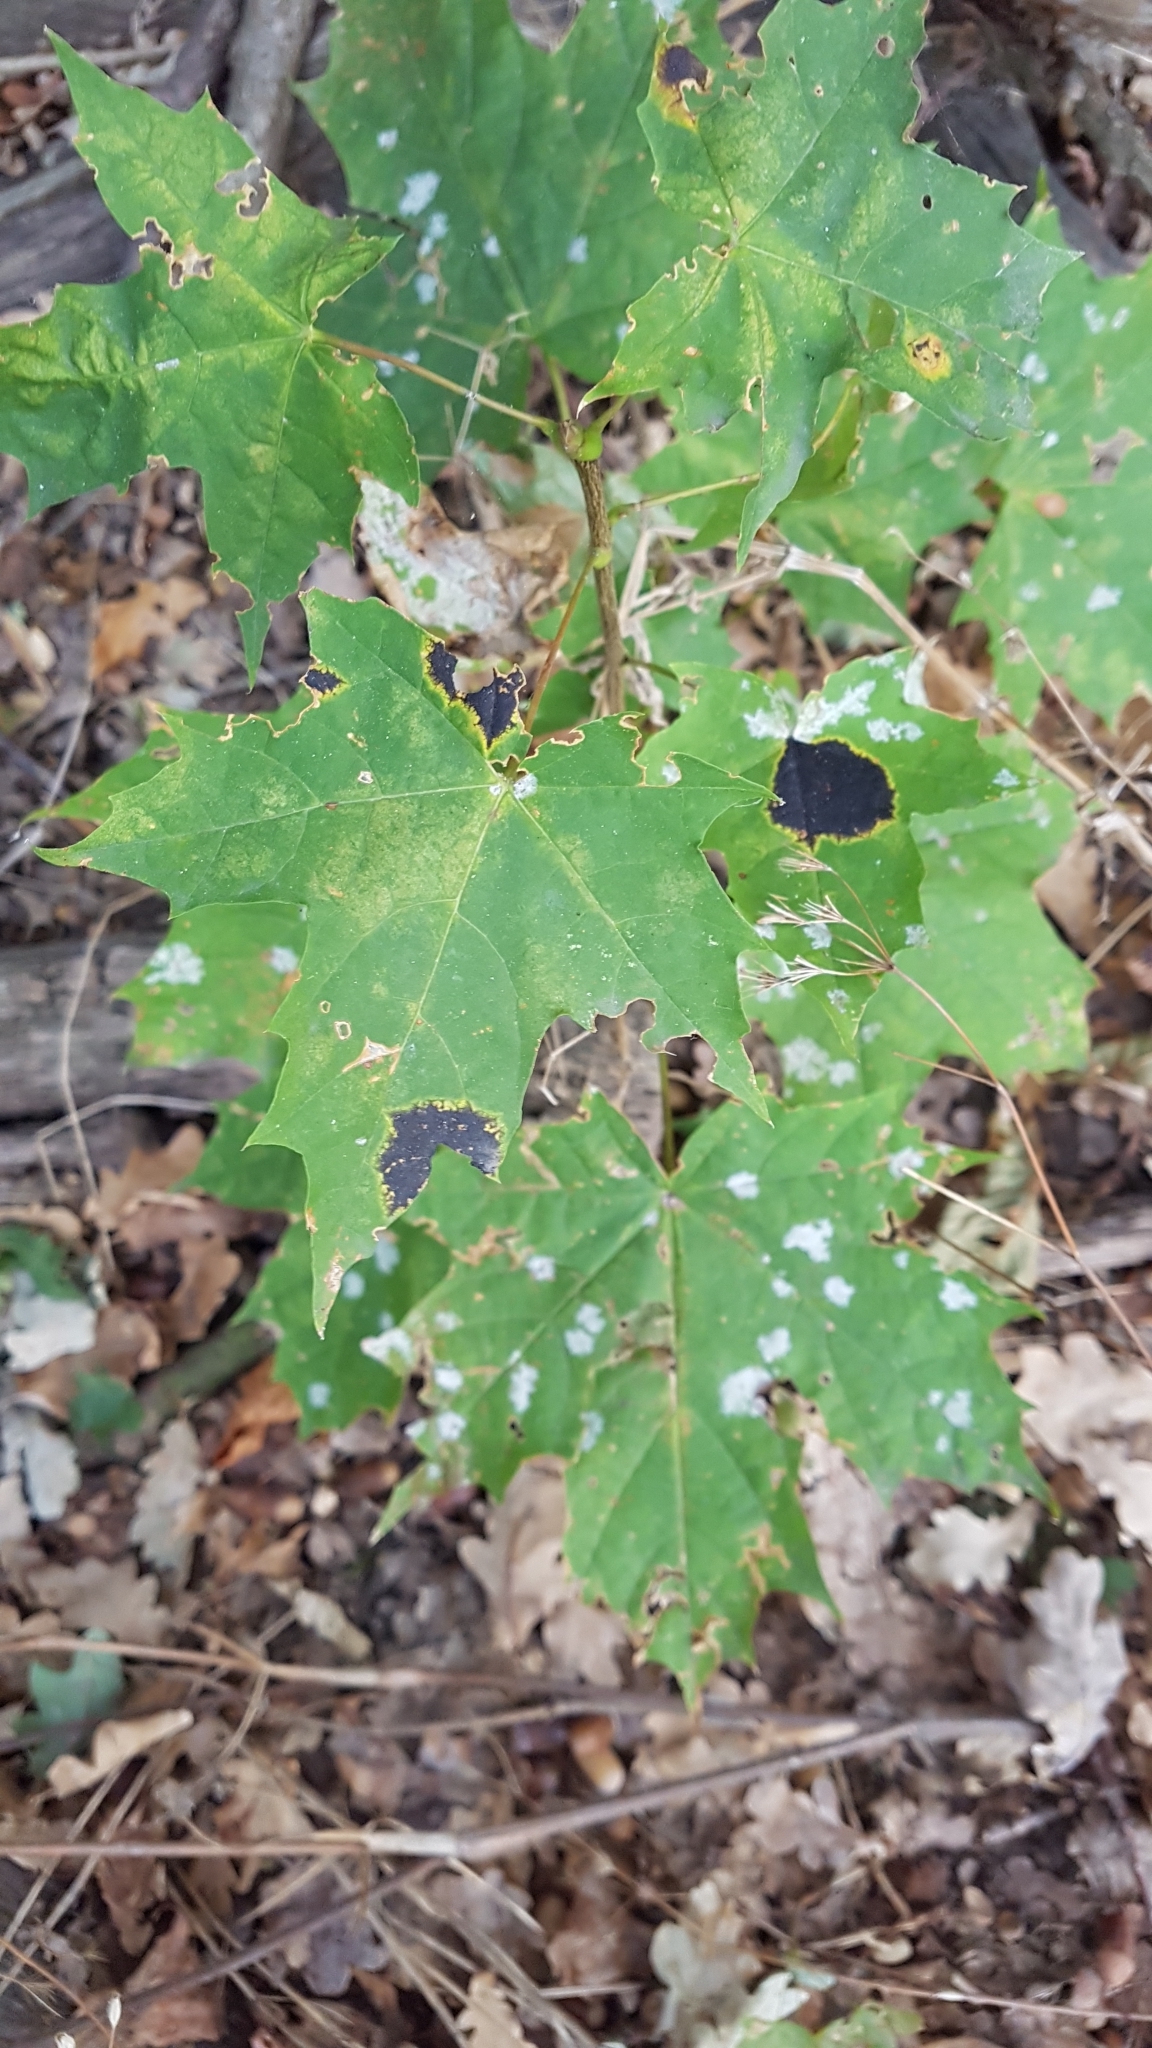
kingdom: Fungi
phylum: Ascomycota
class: Leotiomycetes
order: Rhytismatales
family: Rhytismataceae
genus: Rhytisma
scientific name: Rhytisma acerinum
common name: European tar spot
